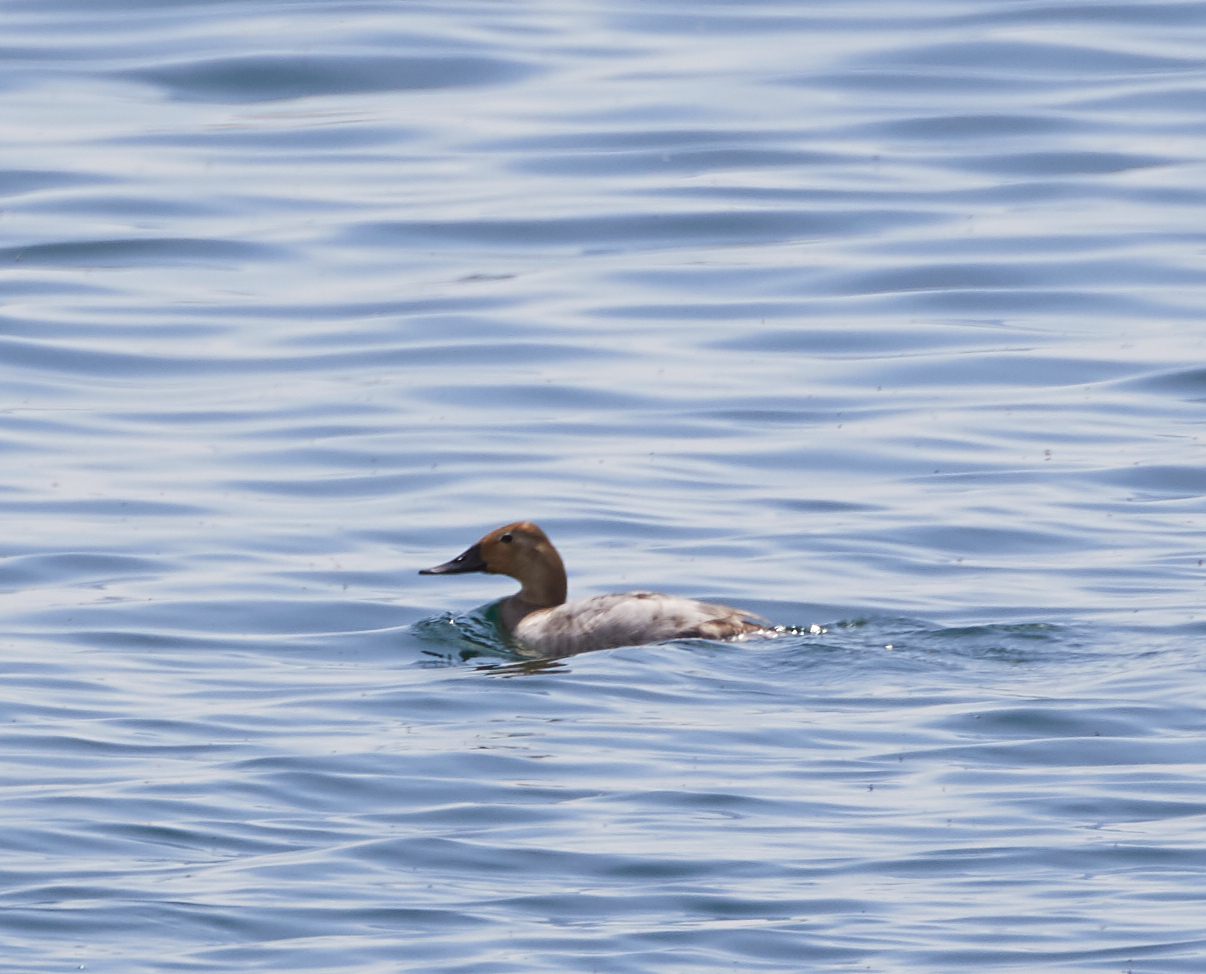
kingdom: Animalia
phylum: Chordata
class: Aves
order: Anseriformes
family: Anatidae
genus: Aythya
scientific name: Aythya valisineria
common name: Canvasback
